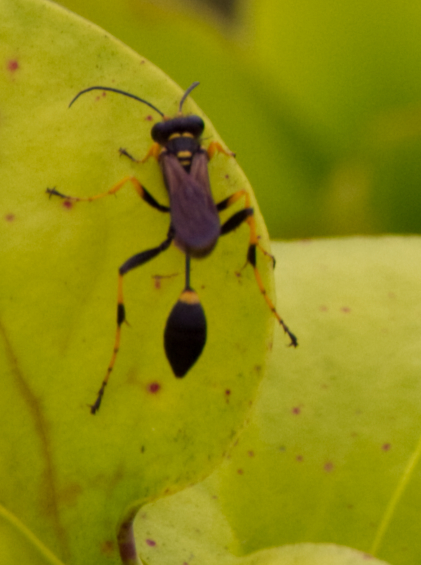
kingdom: Animalia
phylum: Arthropoda
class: Insecta
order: Hymenoptera
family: Sphecidae
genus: Sceliphron
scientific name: Sceliphron caementarium
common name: Mud dauber
